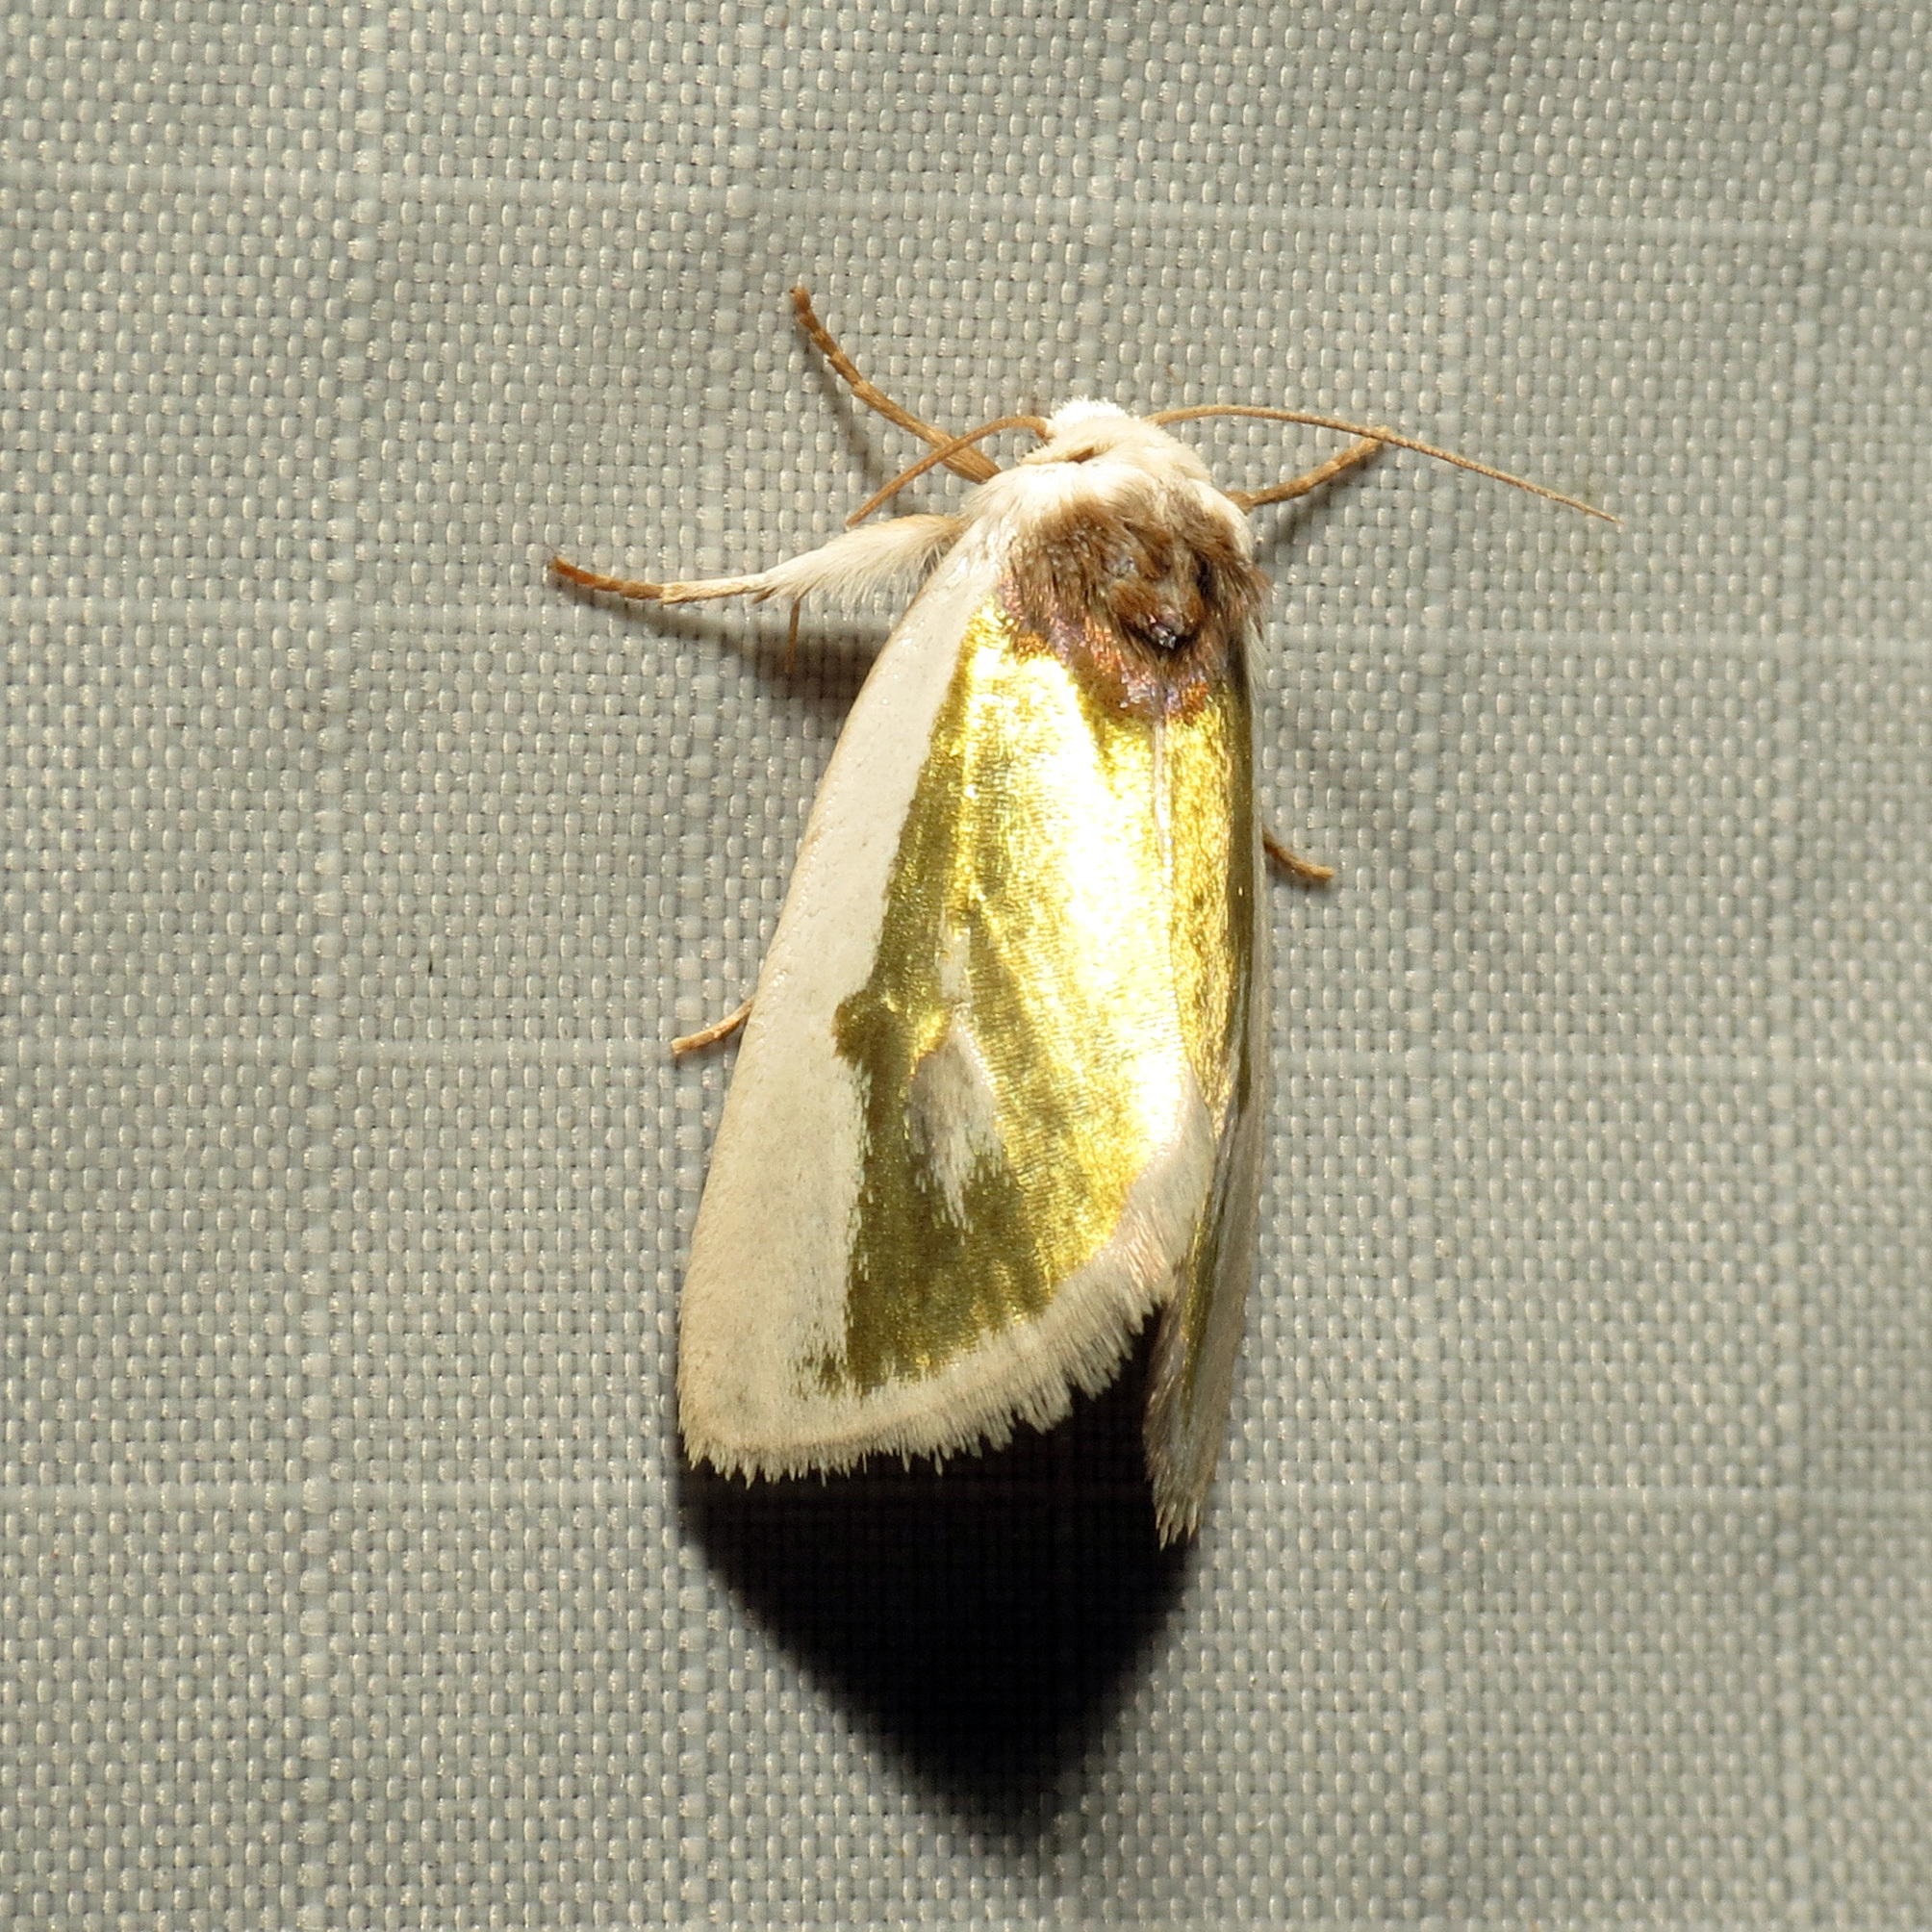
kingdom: Animalia
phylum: Arthropoda
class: Insecta
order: Lepidoptera
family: Noctuidae
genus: Neumoegenia
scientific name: Neumoegenia poetica
